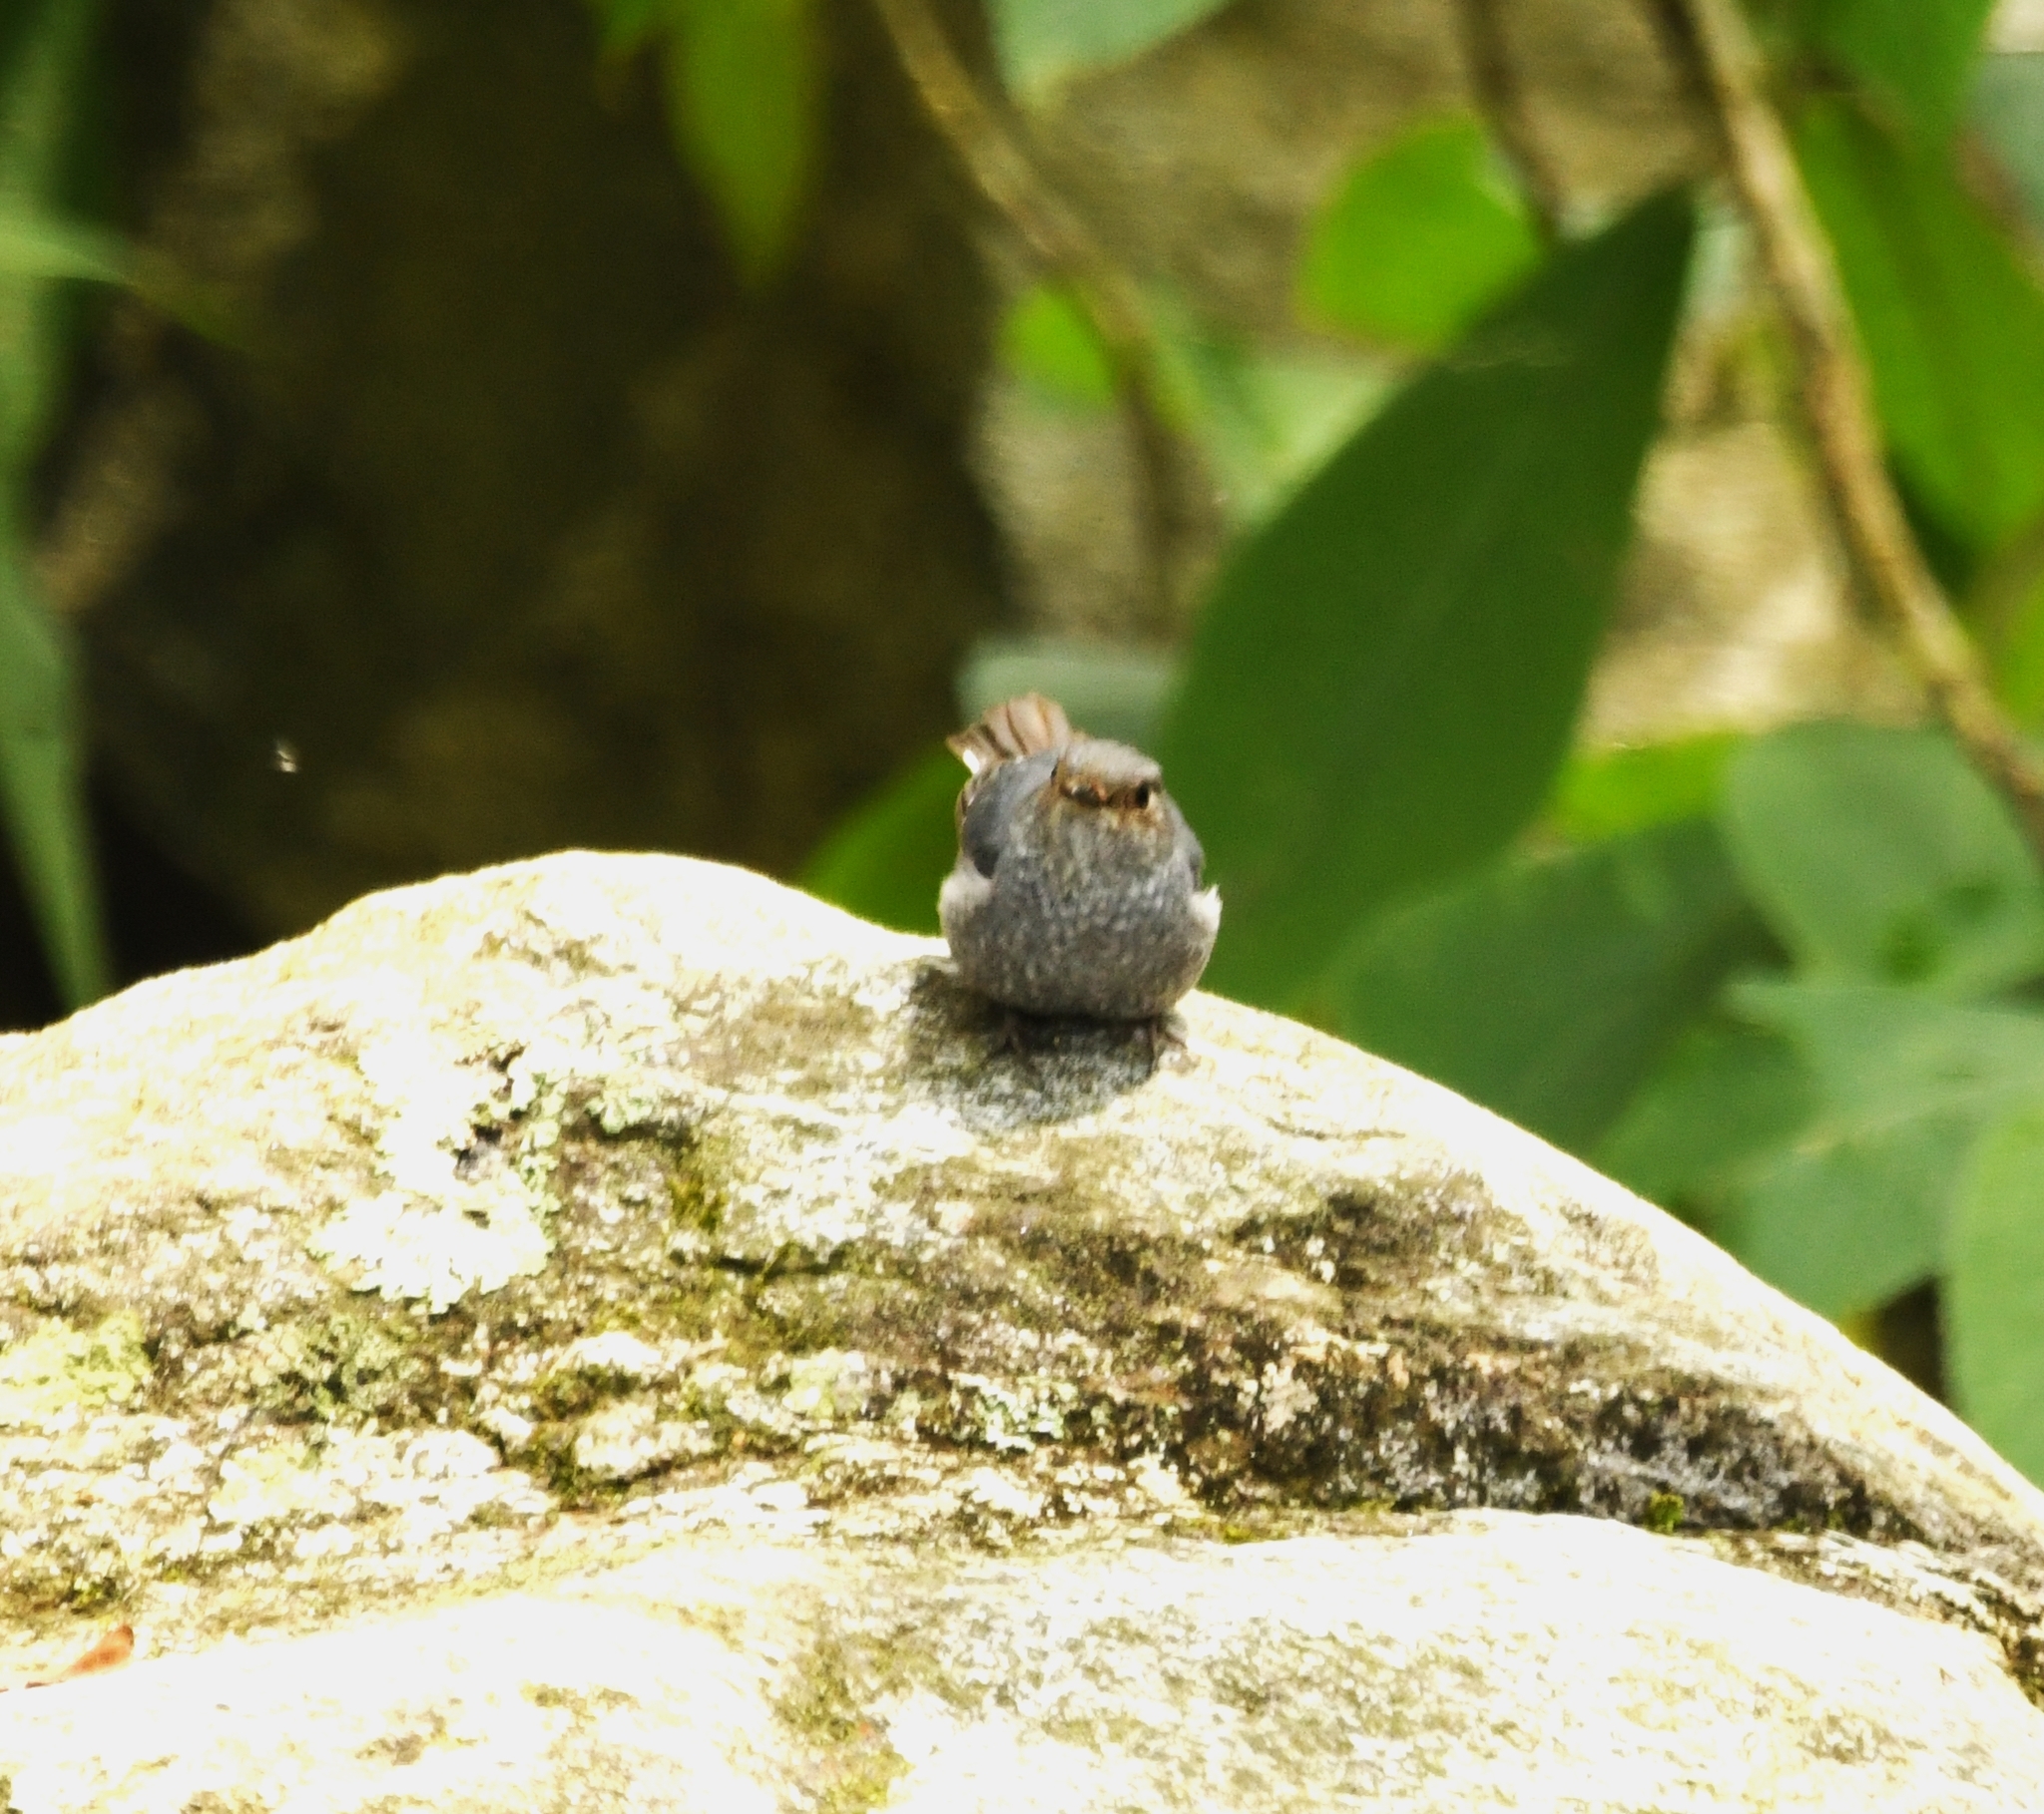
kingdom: Animalia
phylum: Chordata
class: Aves
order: Passeriformes
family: Muscicapidae
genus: Phoenicurus
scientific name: Phoenicurus fuliginosus
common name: Plumbeous water redstart
